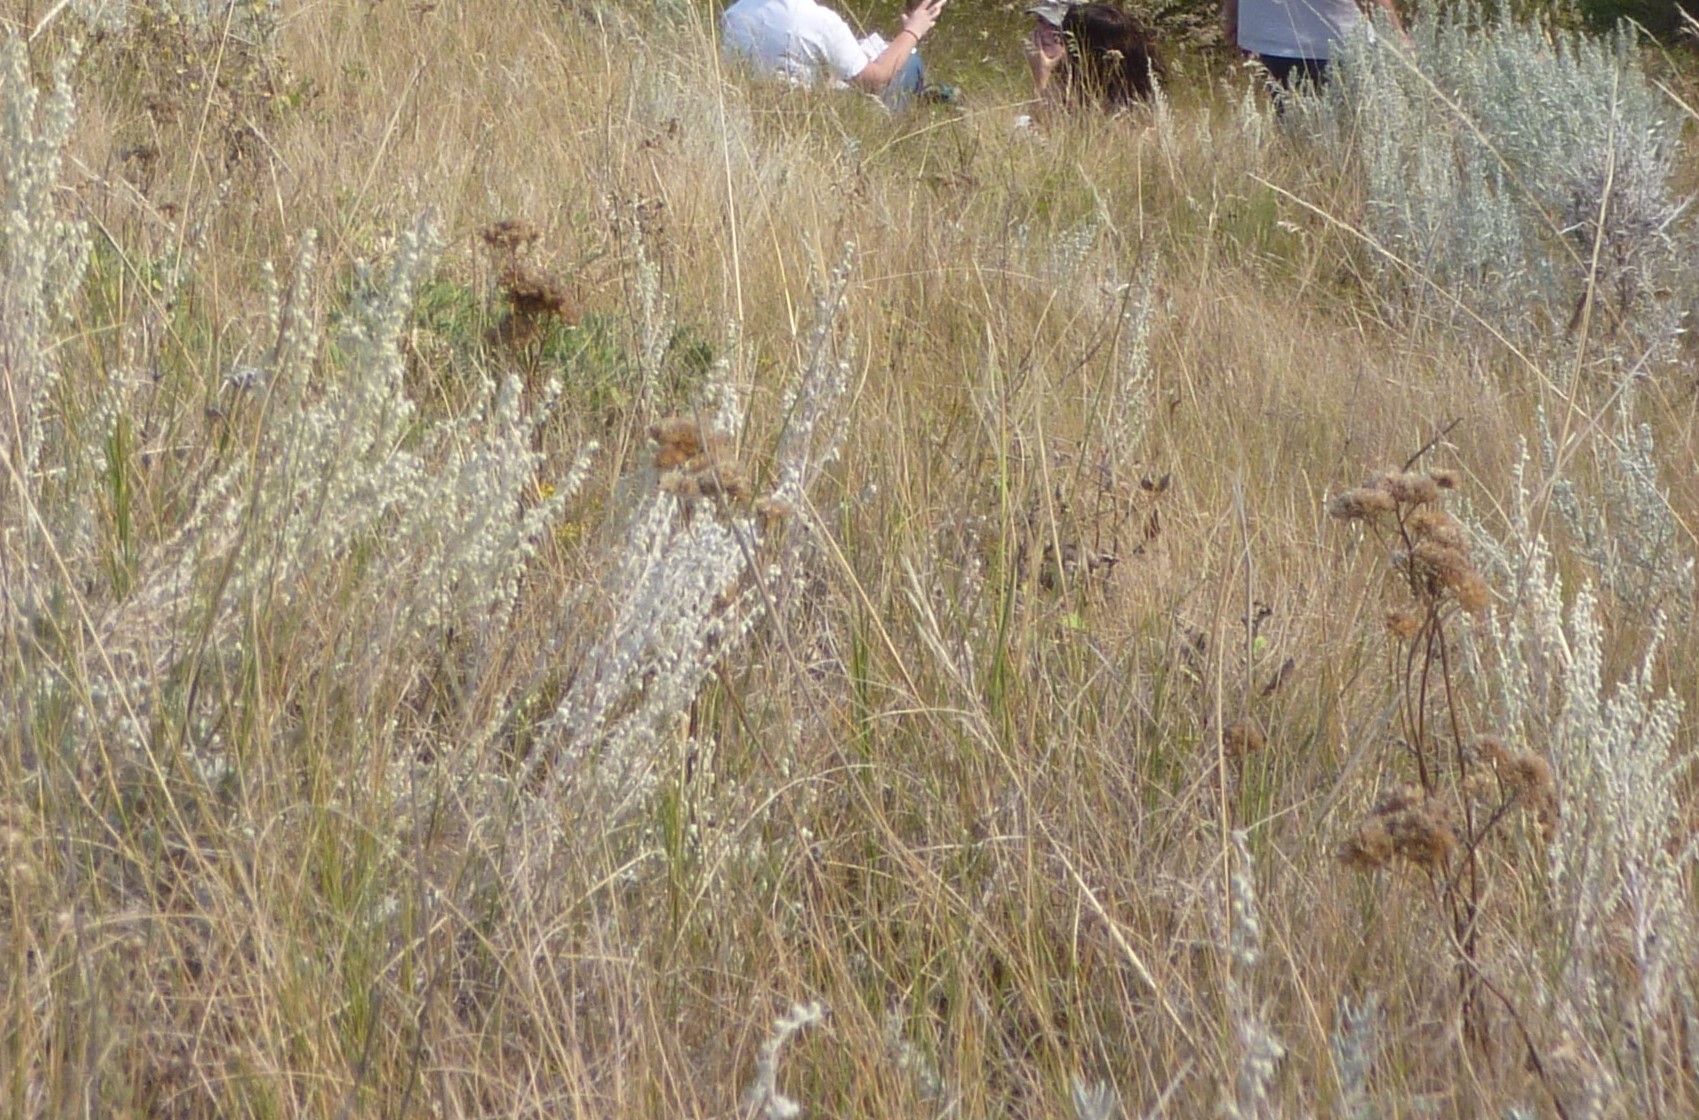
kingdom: Plantae
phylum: Tracheophyta
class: Magnoliopsida
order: Asterales
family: Asteraceae
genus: Artemisia
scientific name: Artemisia frigida
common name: Prairie sagewort
